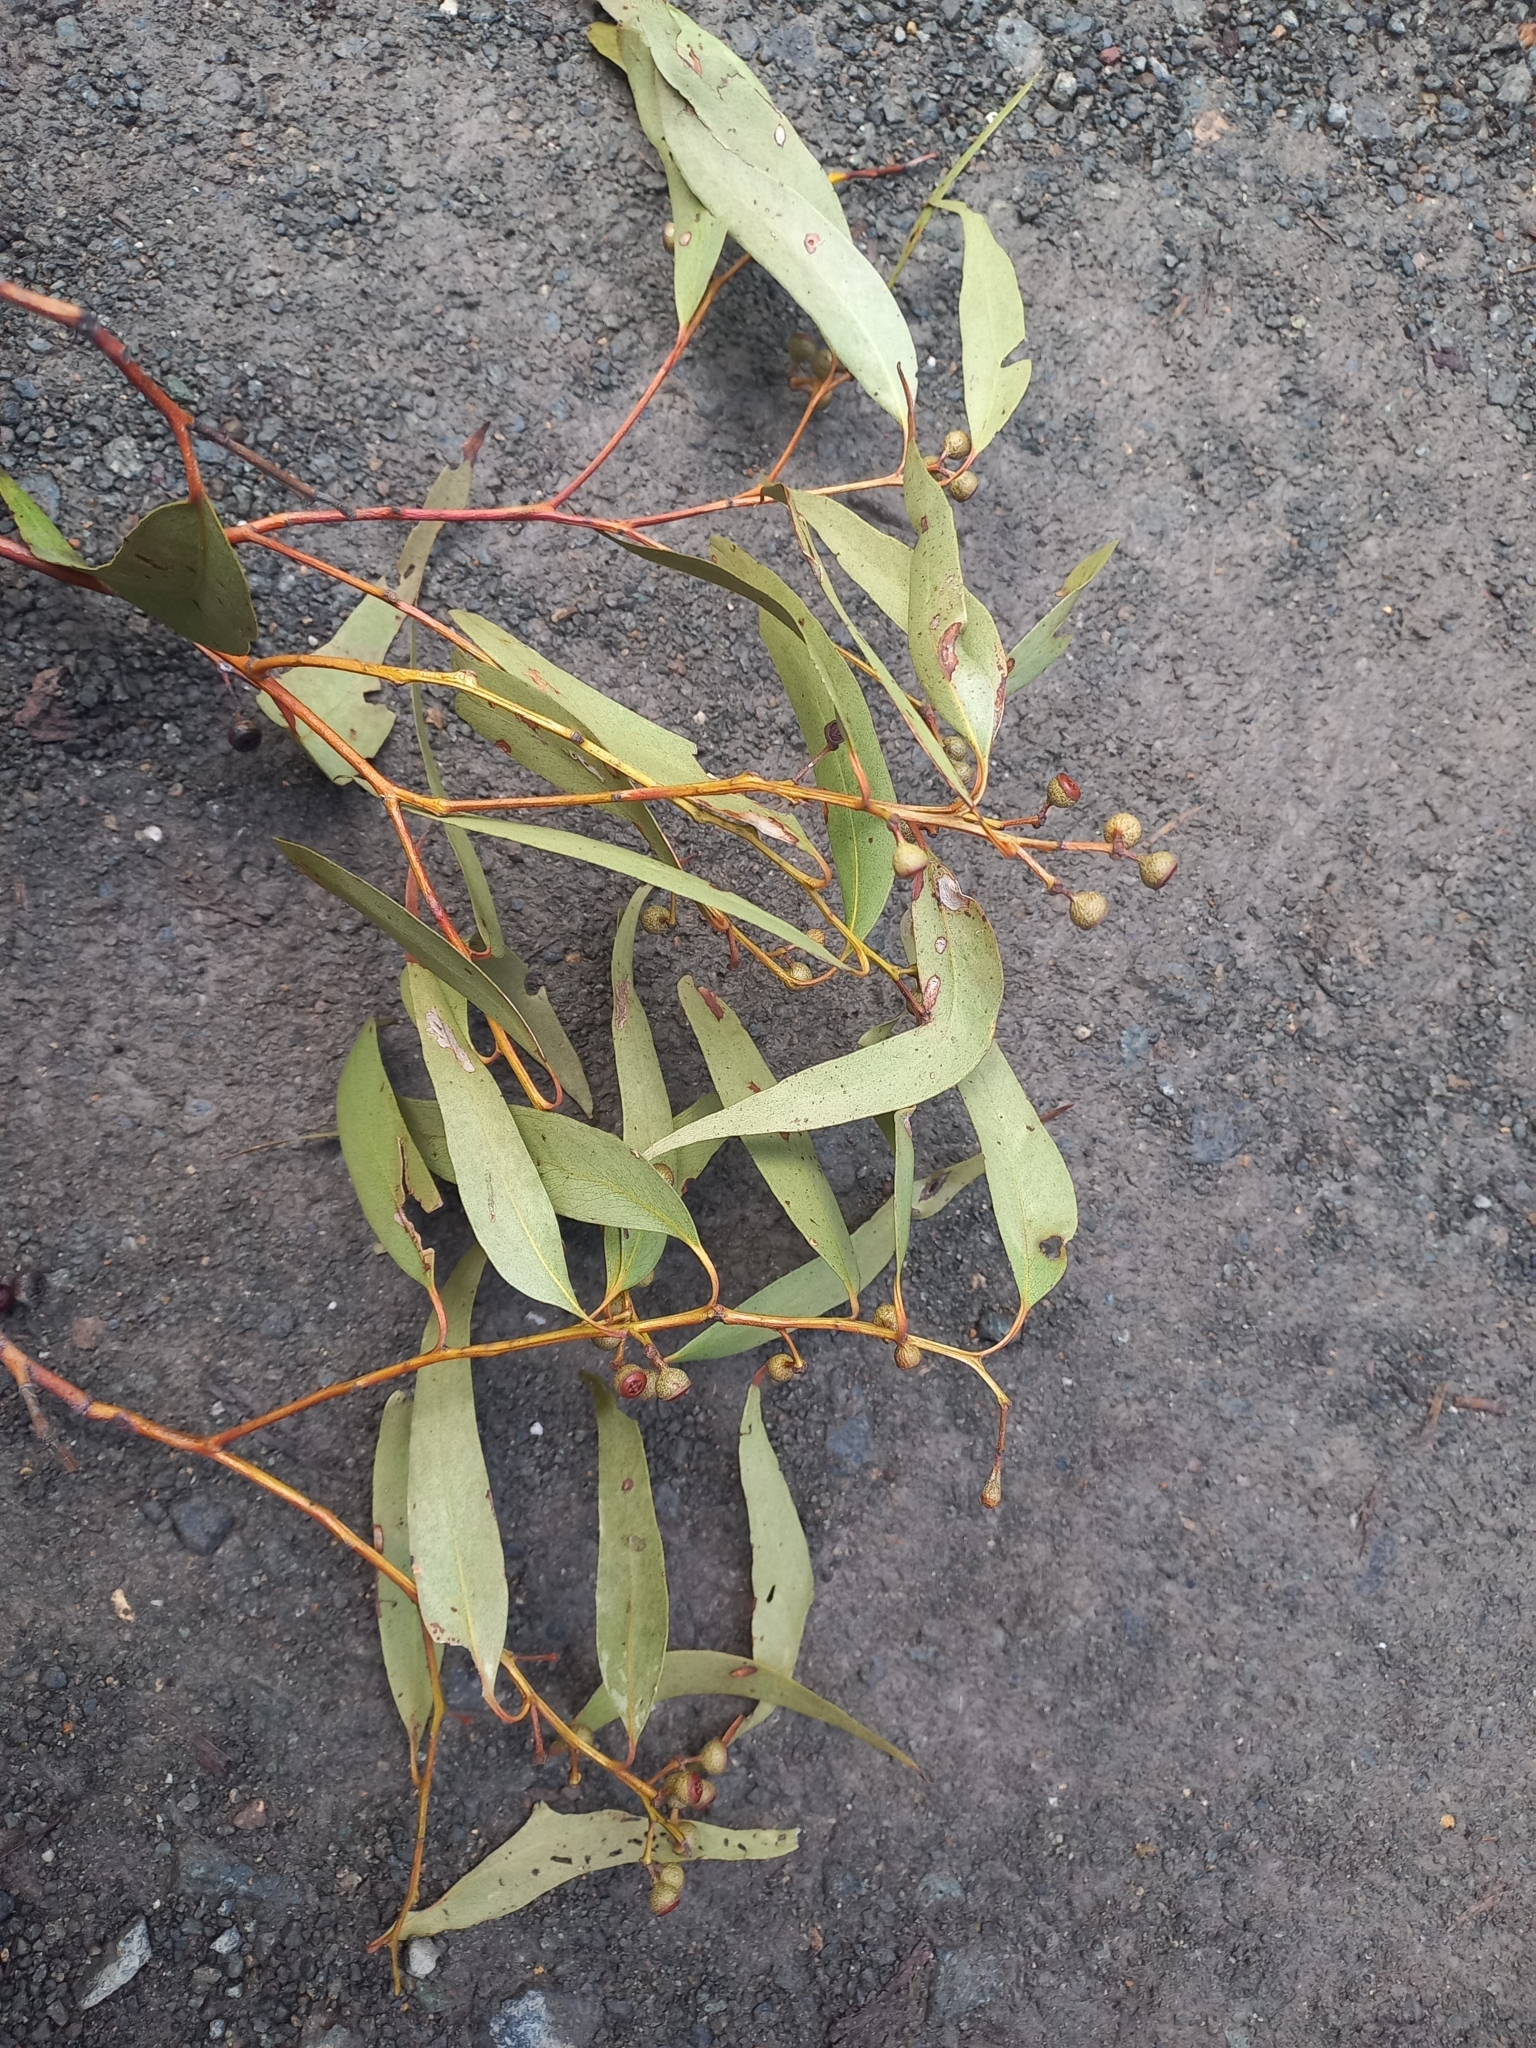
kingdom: Plantae
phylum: Tracheophyta
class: Magnoliopsida
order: Myrtales
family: Myrtaceae
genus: Eucalyptus
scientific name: Eucalyptus racemosa
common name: Scribbly gum
